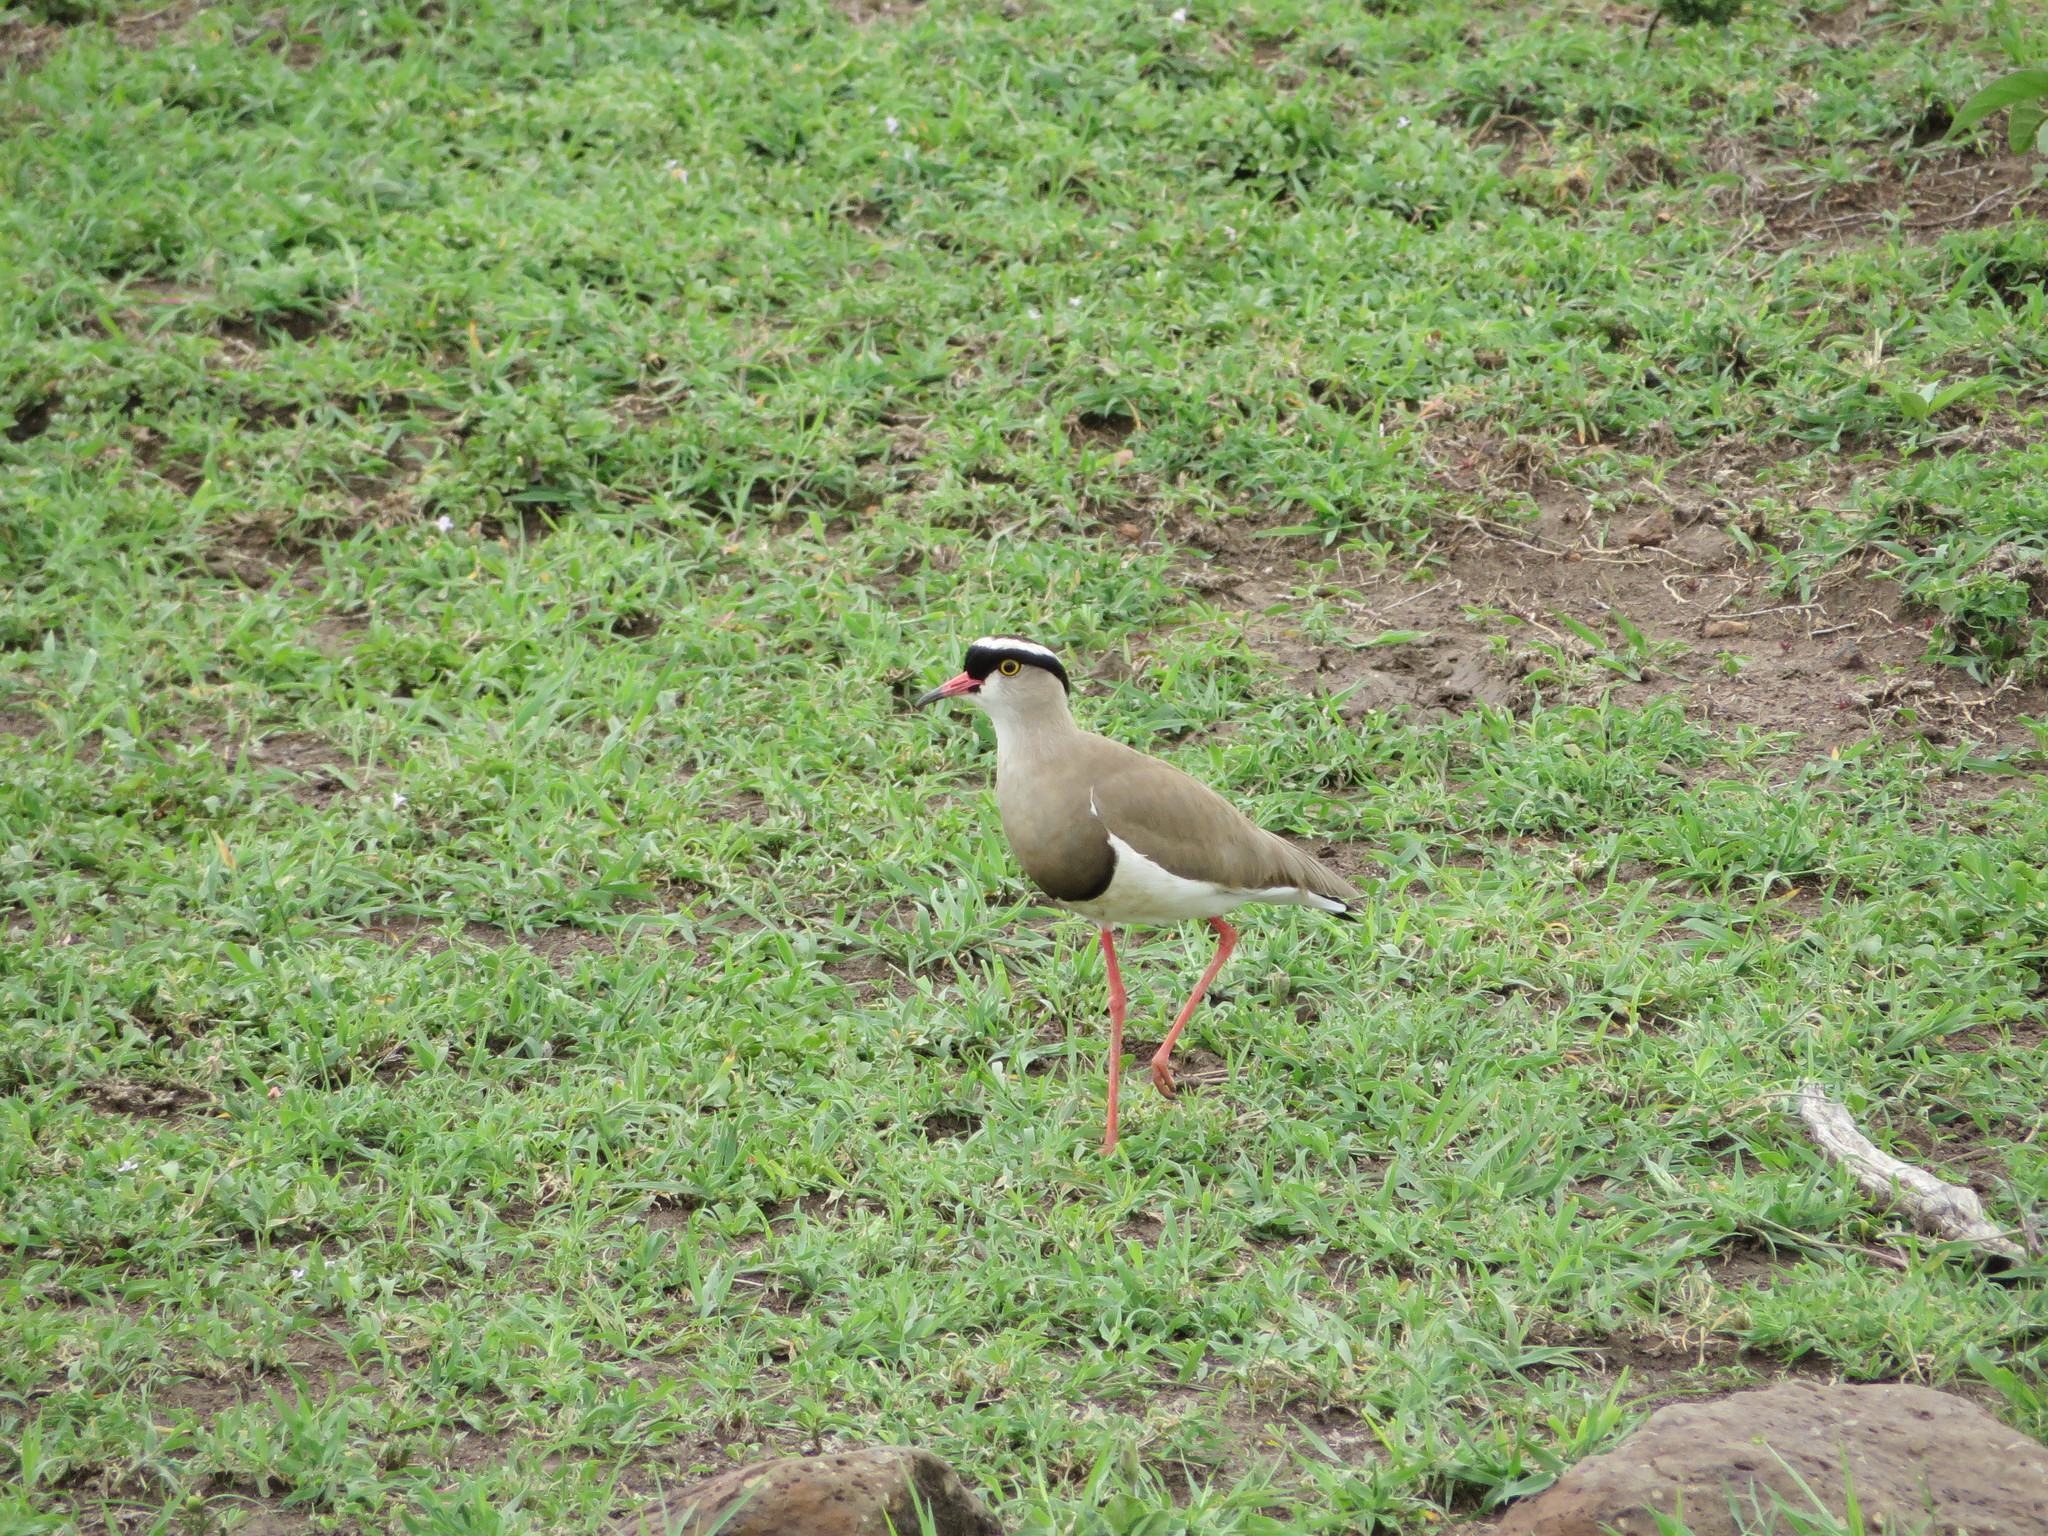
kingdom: Animalia
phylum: Chordata
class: Aves
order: Charadriiformes
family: Charadriidae
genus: Vanellus
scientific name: Vanellus coronatus
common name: Crowned lapwing
